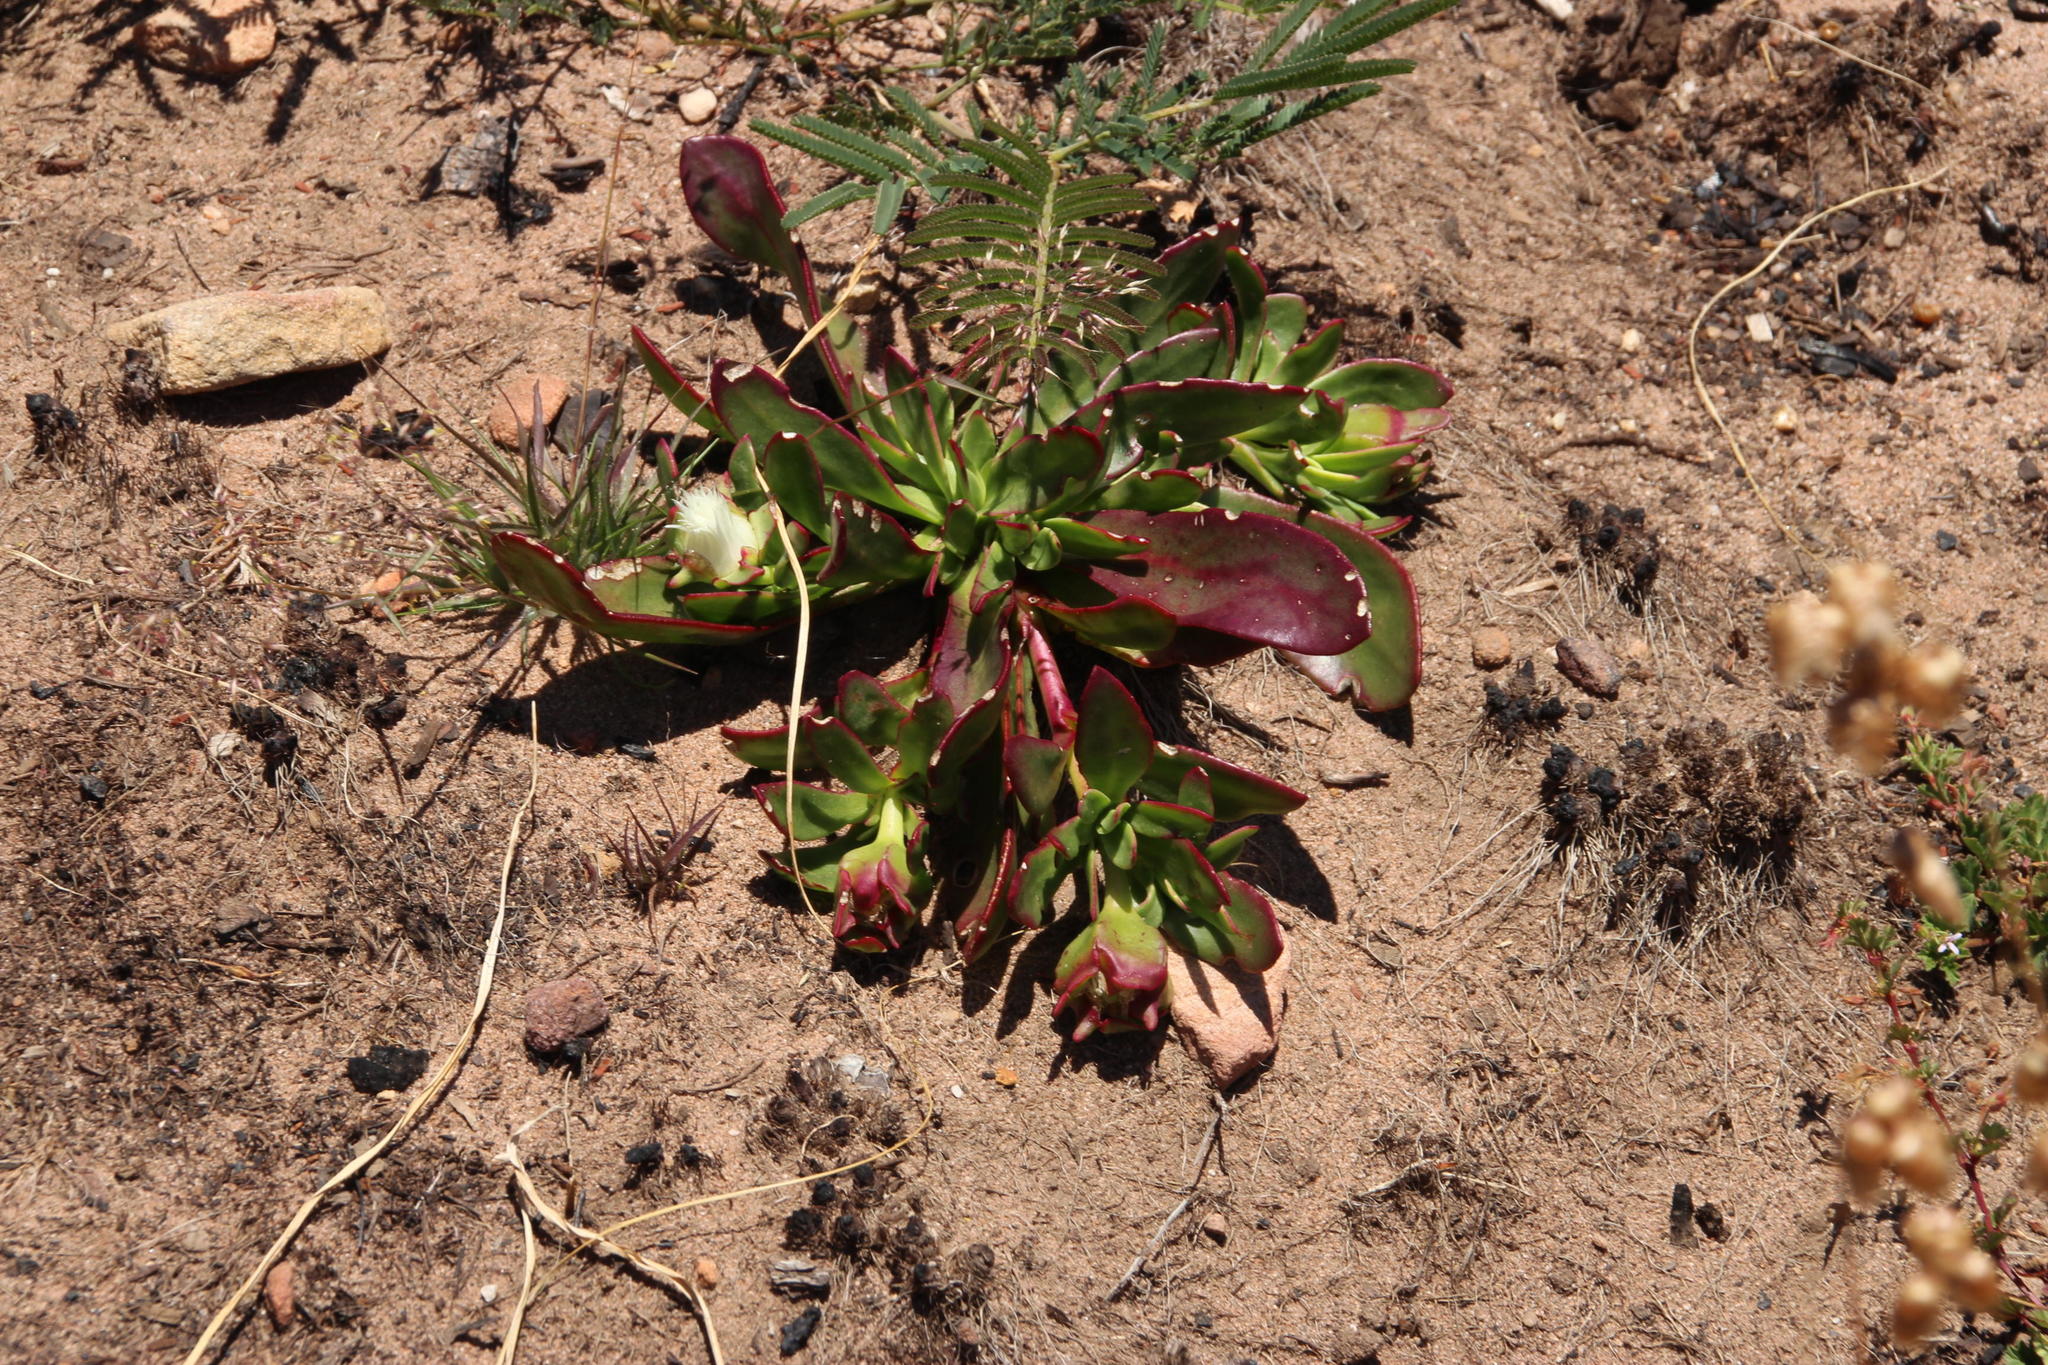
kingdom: Plantae
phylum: Tracheophyta
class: Magnoliopsida
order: Caryophyllales
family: Aizoaceae
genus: Skiatophytum
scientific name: Skiatophytum tripolium
